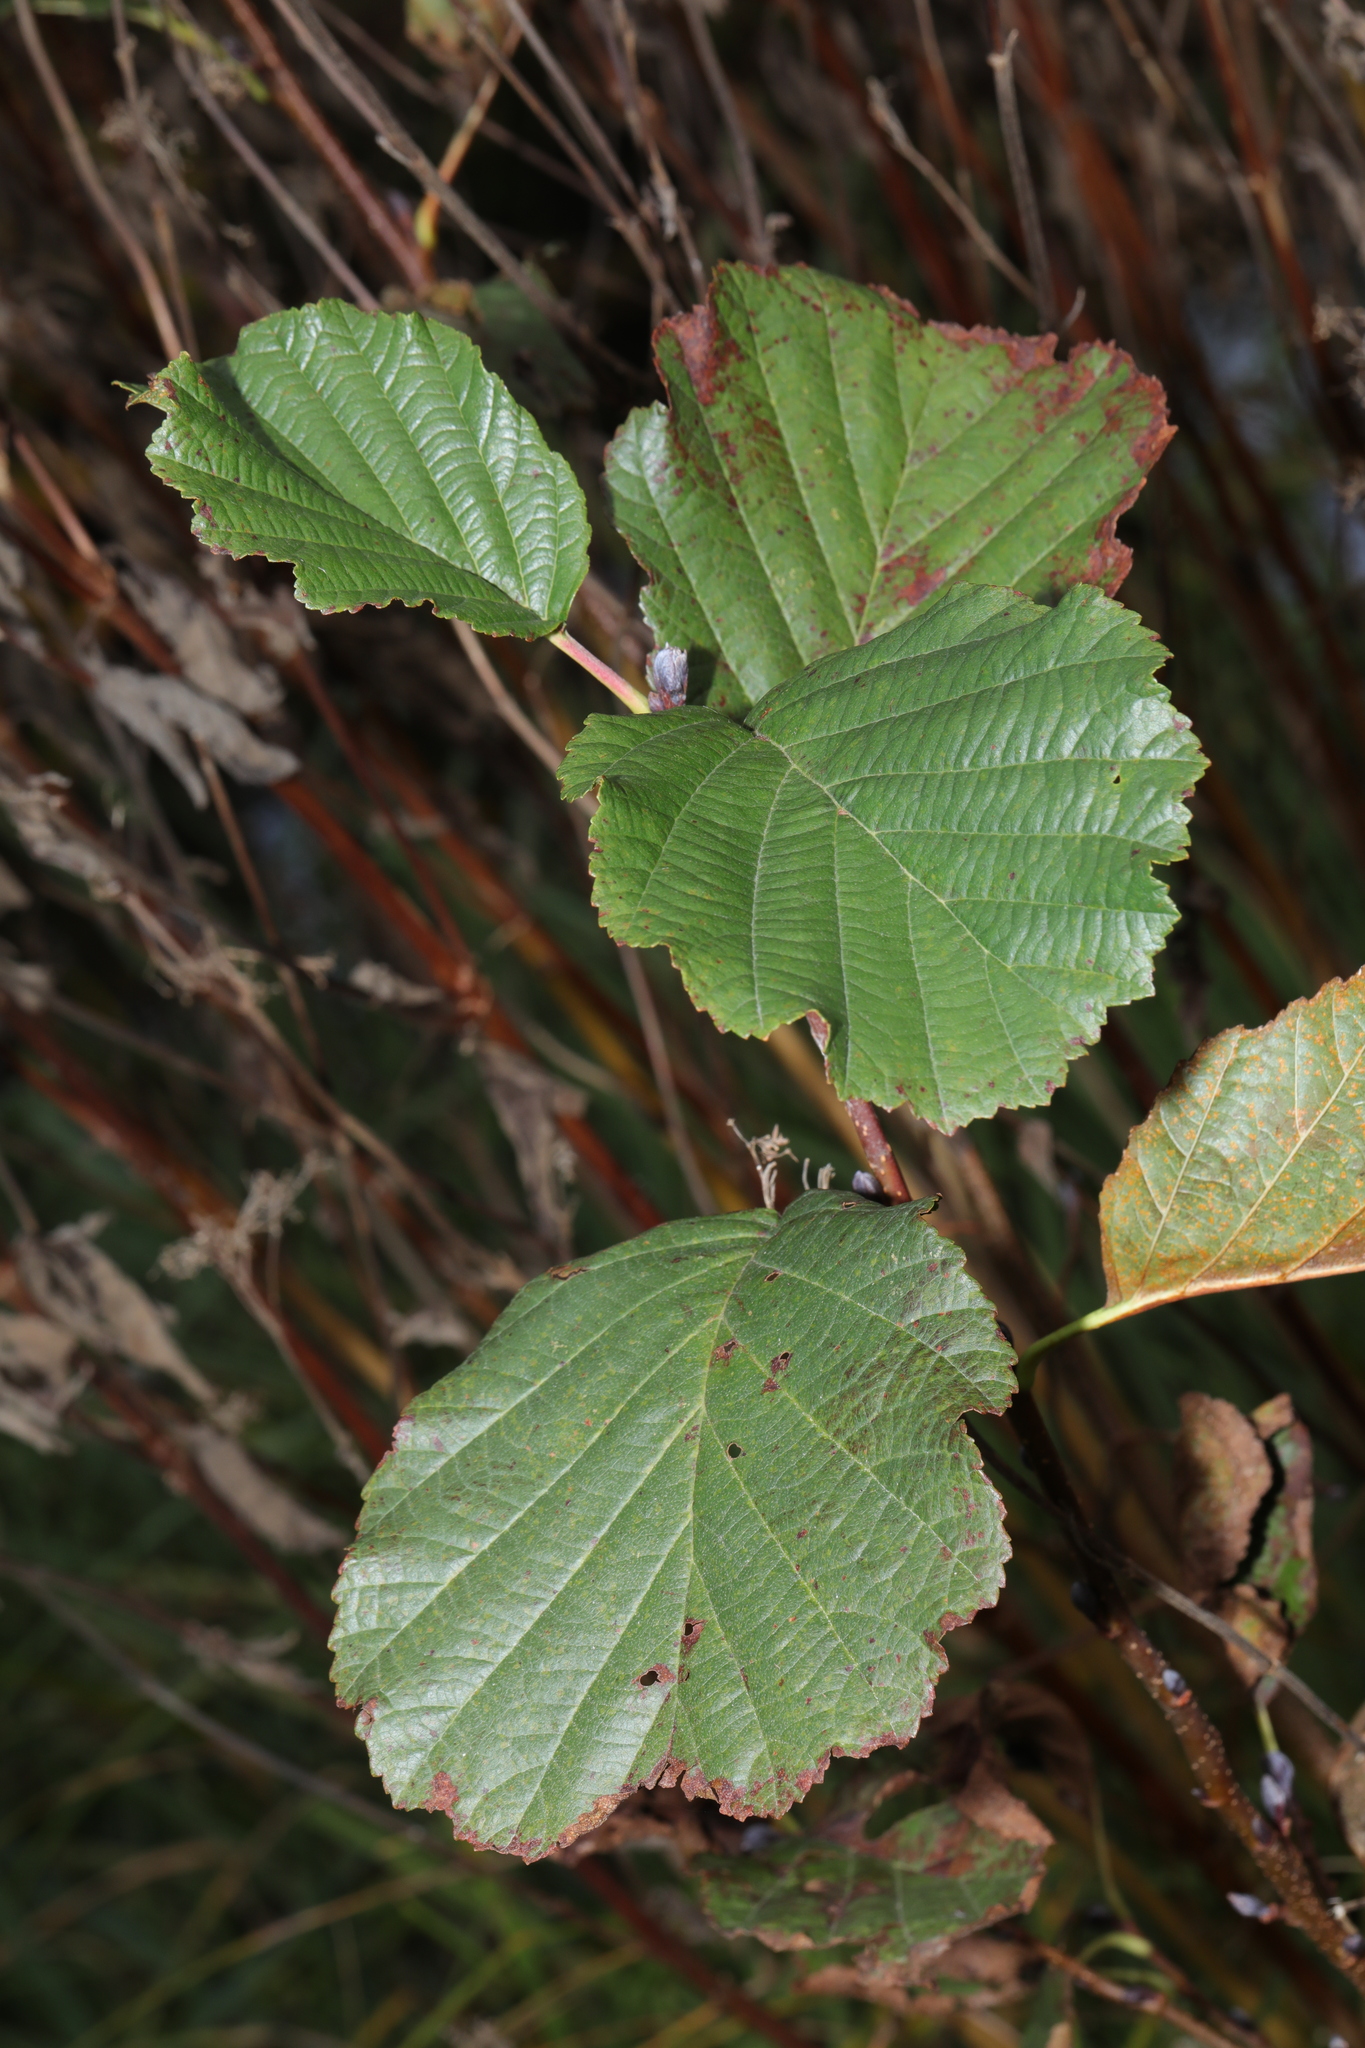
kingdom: Plantae
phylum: Tracheophyta
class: Magnoliopsida
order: Fagales
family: Betulaceae
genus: Alnus
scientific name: Alnus glutinosa
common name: Black alder
